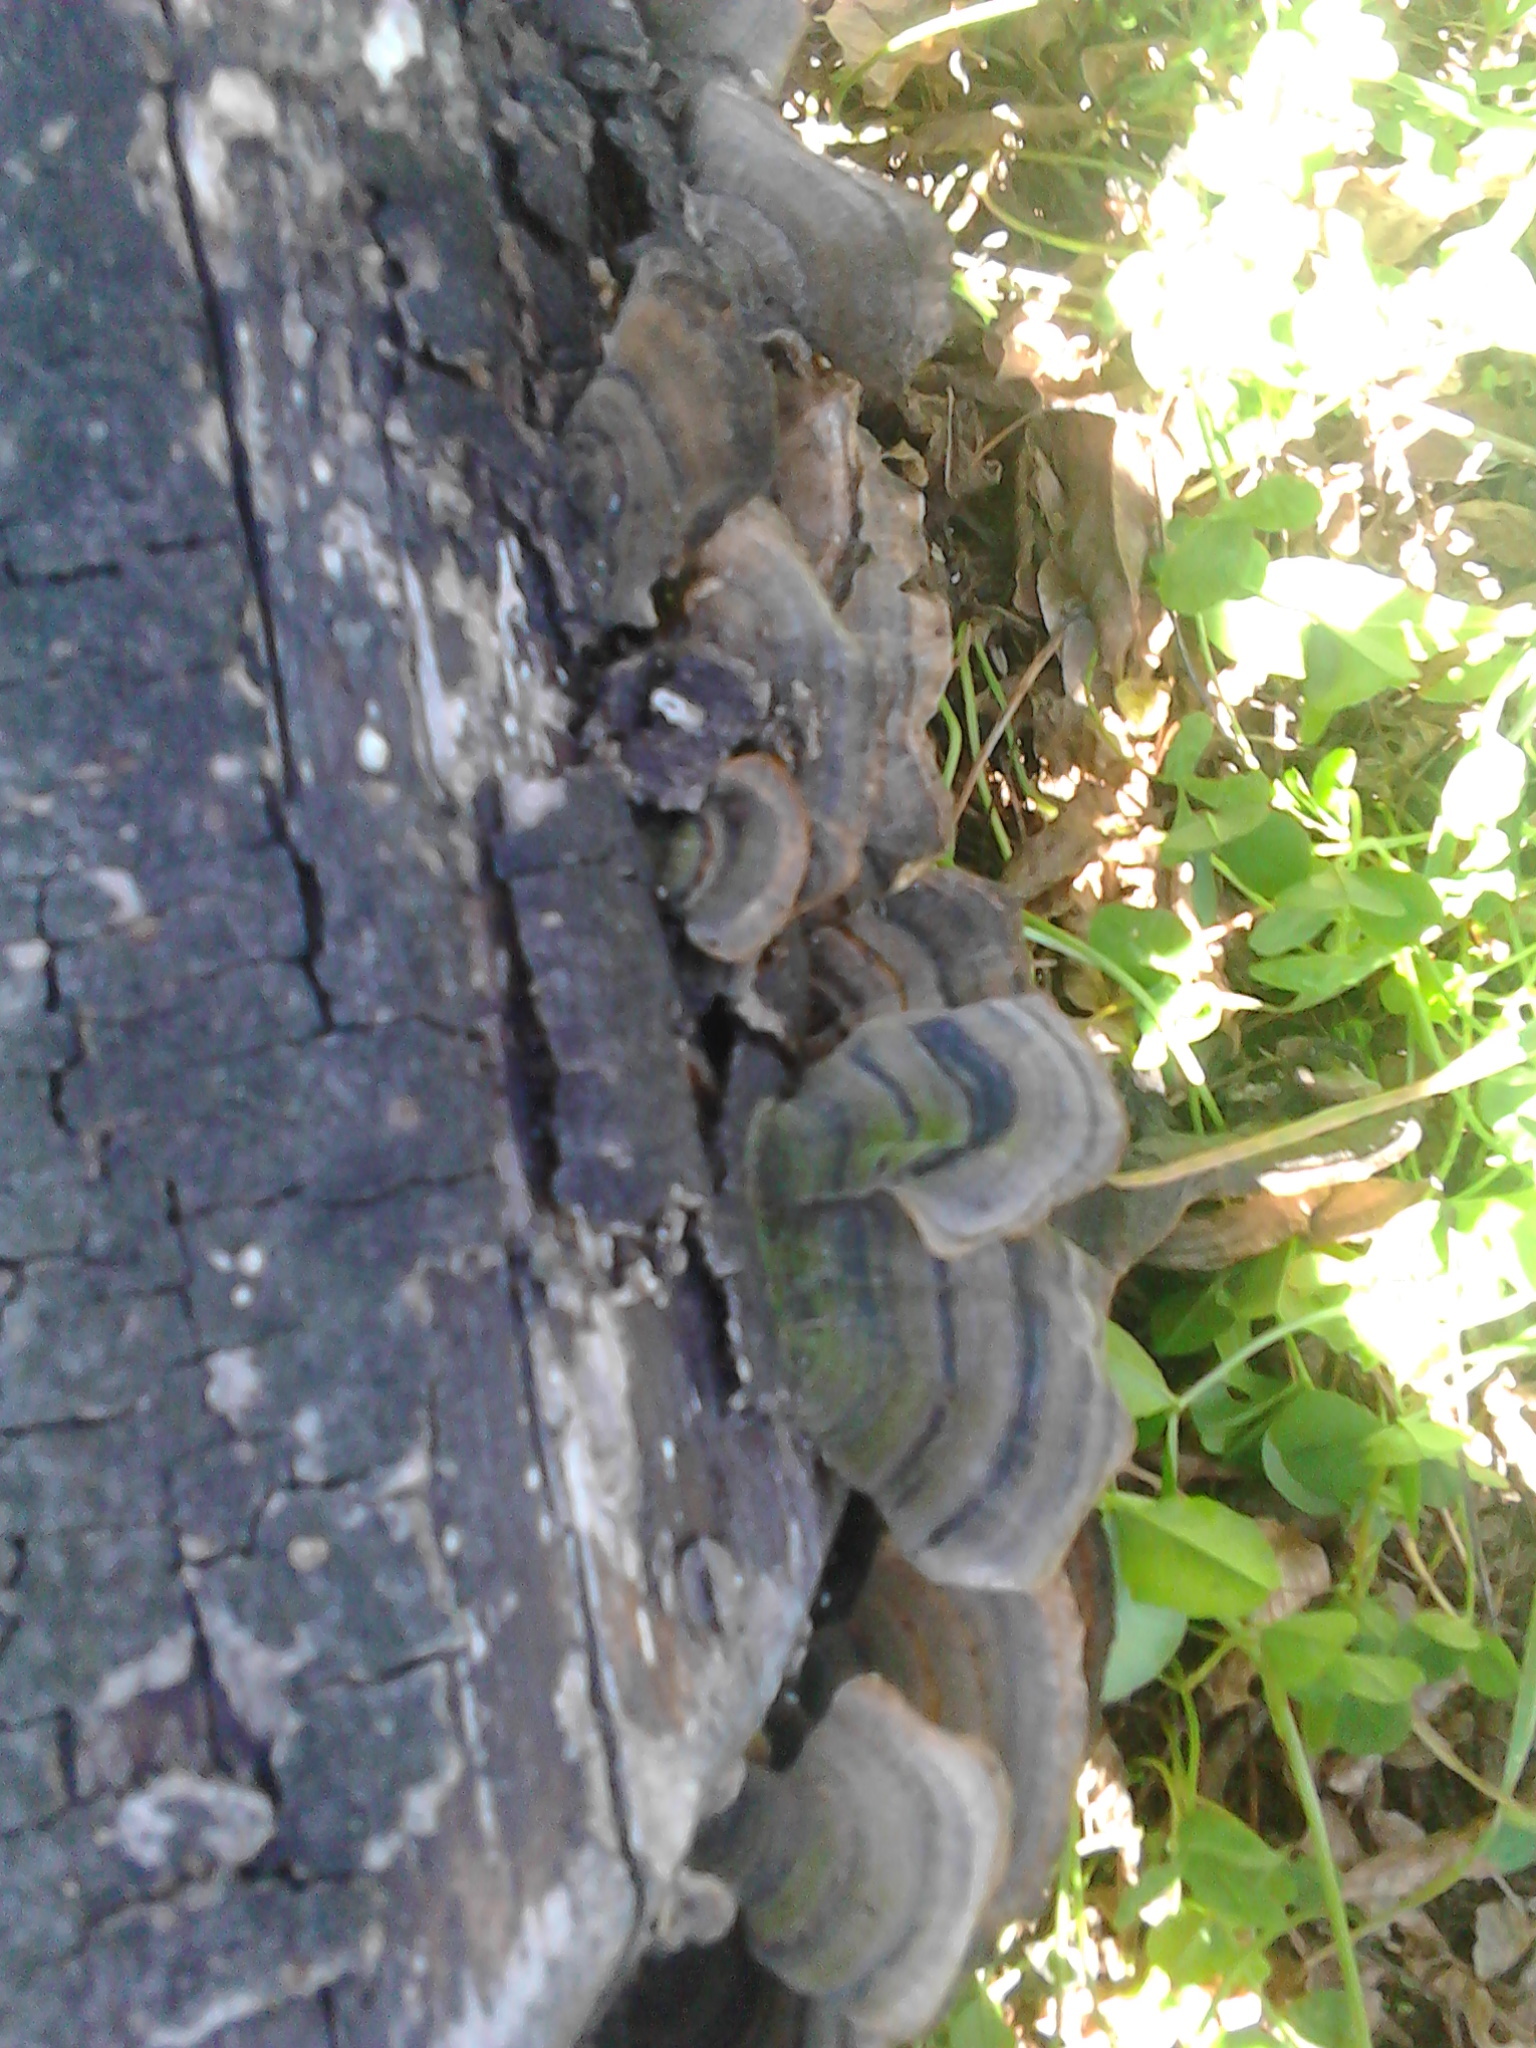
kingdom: Fungi
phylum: Basidiomycota
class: Agaricomycetes
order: Polyporales
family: Polyporaceae
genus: Trametes
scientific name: Trametes versicolor
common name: Turkeytail
